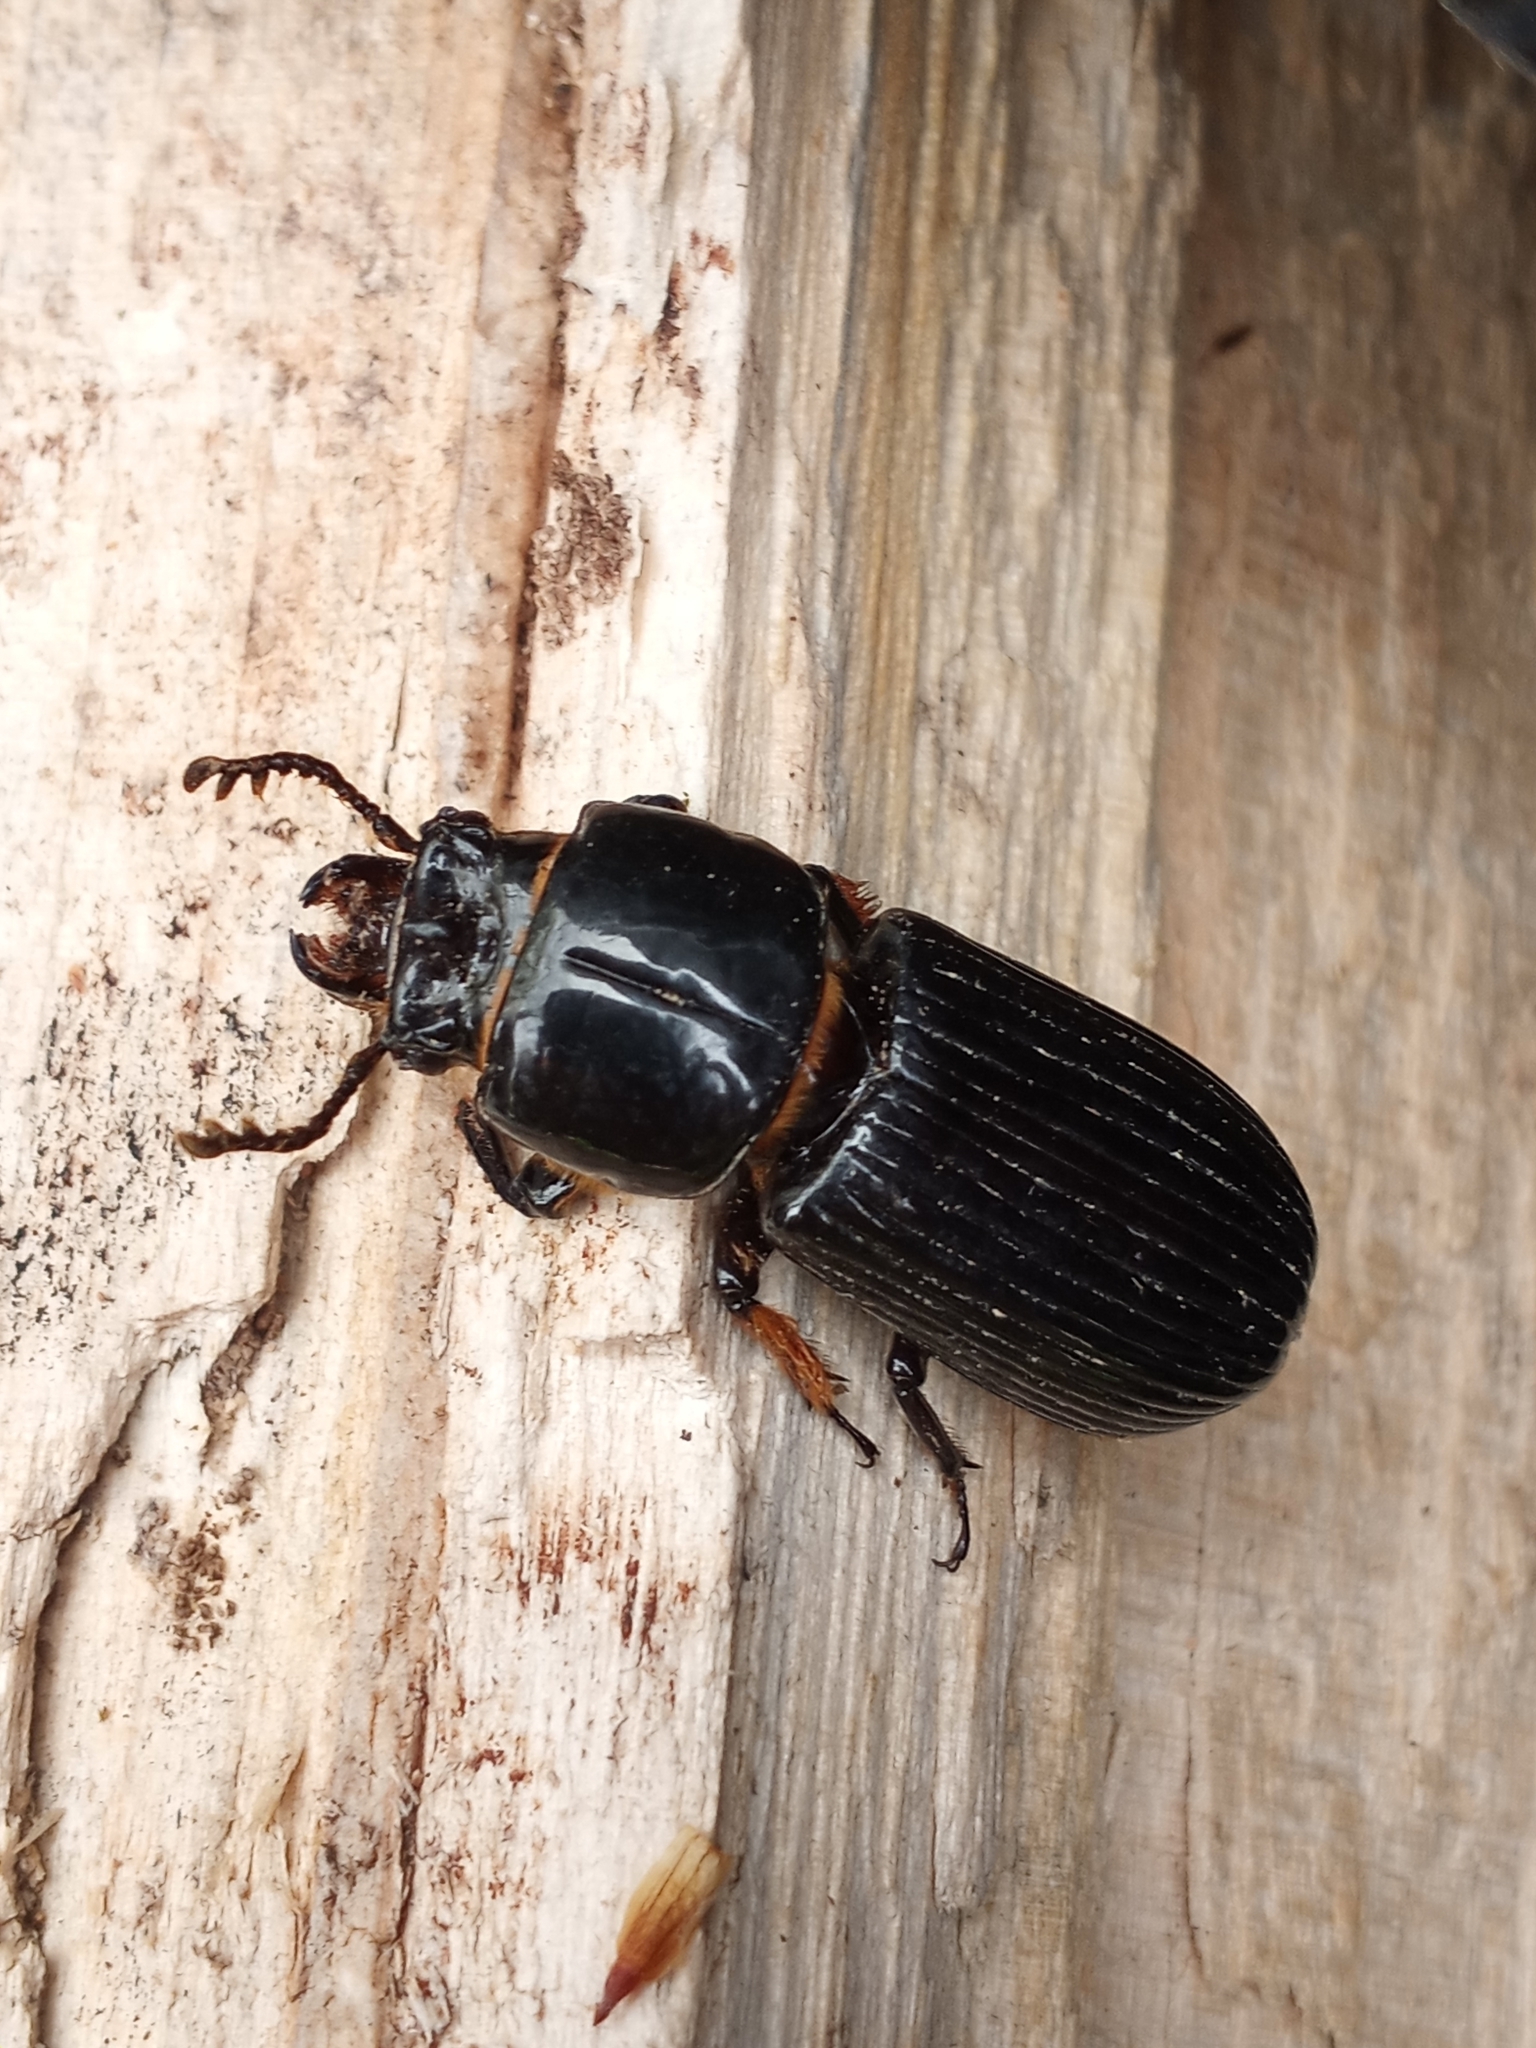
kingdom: Animalia
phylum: Arthropoda
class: Insecta
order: Coleoptera
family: Passalidae
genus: Odontotaenius
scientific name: Odontotaenius disjunctus
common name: Patent leather beetle
